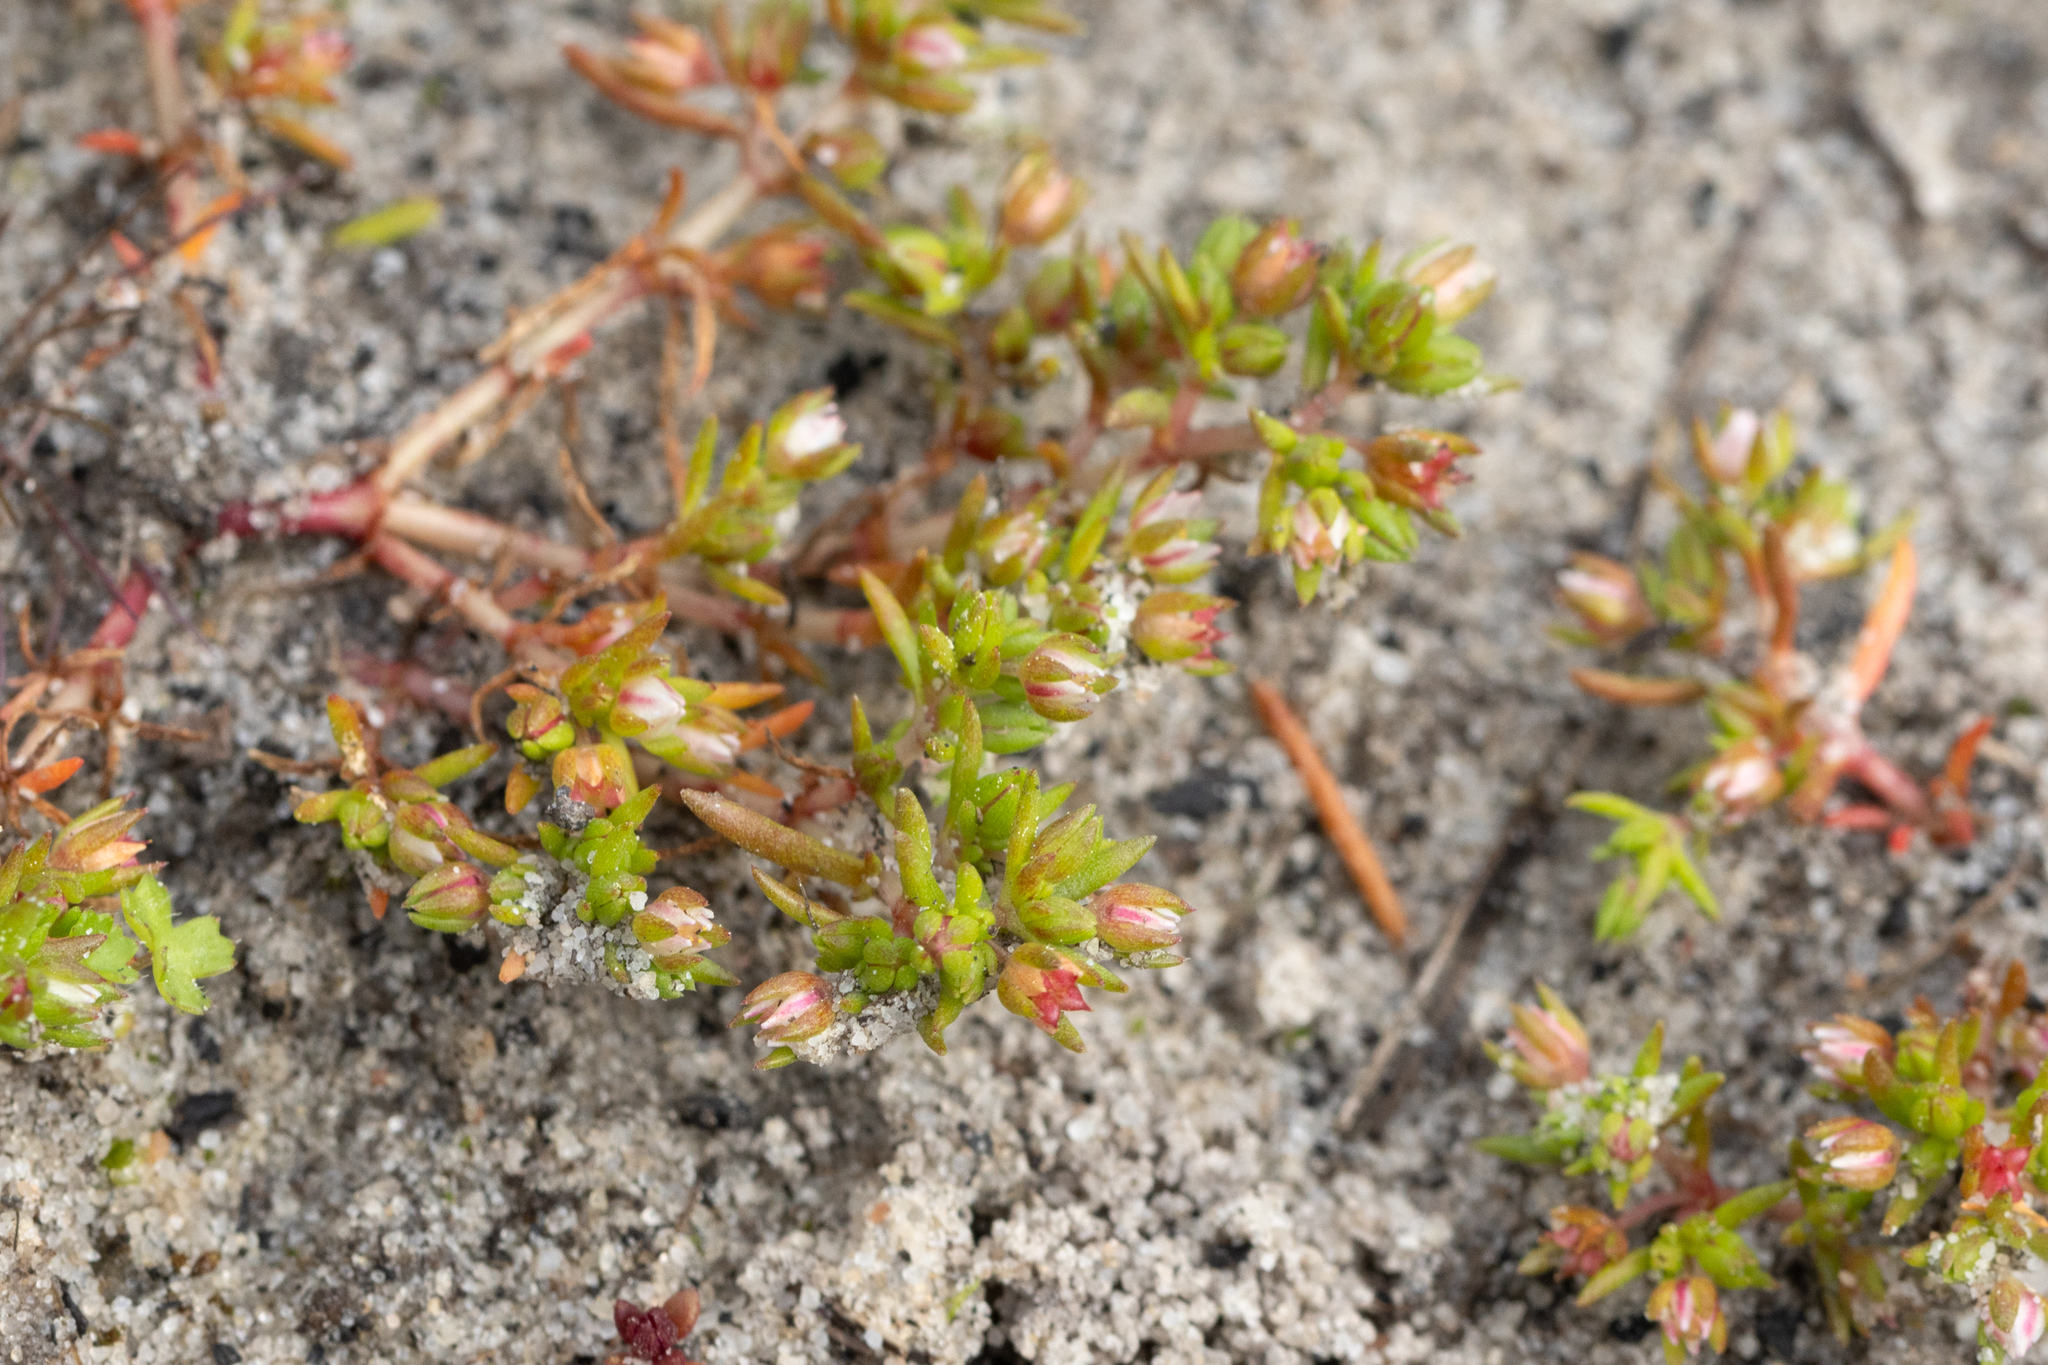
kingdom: Plantae
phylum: Tracheophyta
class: Magnoliopsida
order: Saxifragales
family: Crassulaceae
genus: Crassula
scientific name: Crassula decumbens
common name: Scilly pigmyweed
